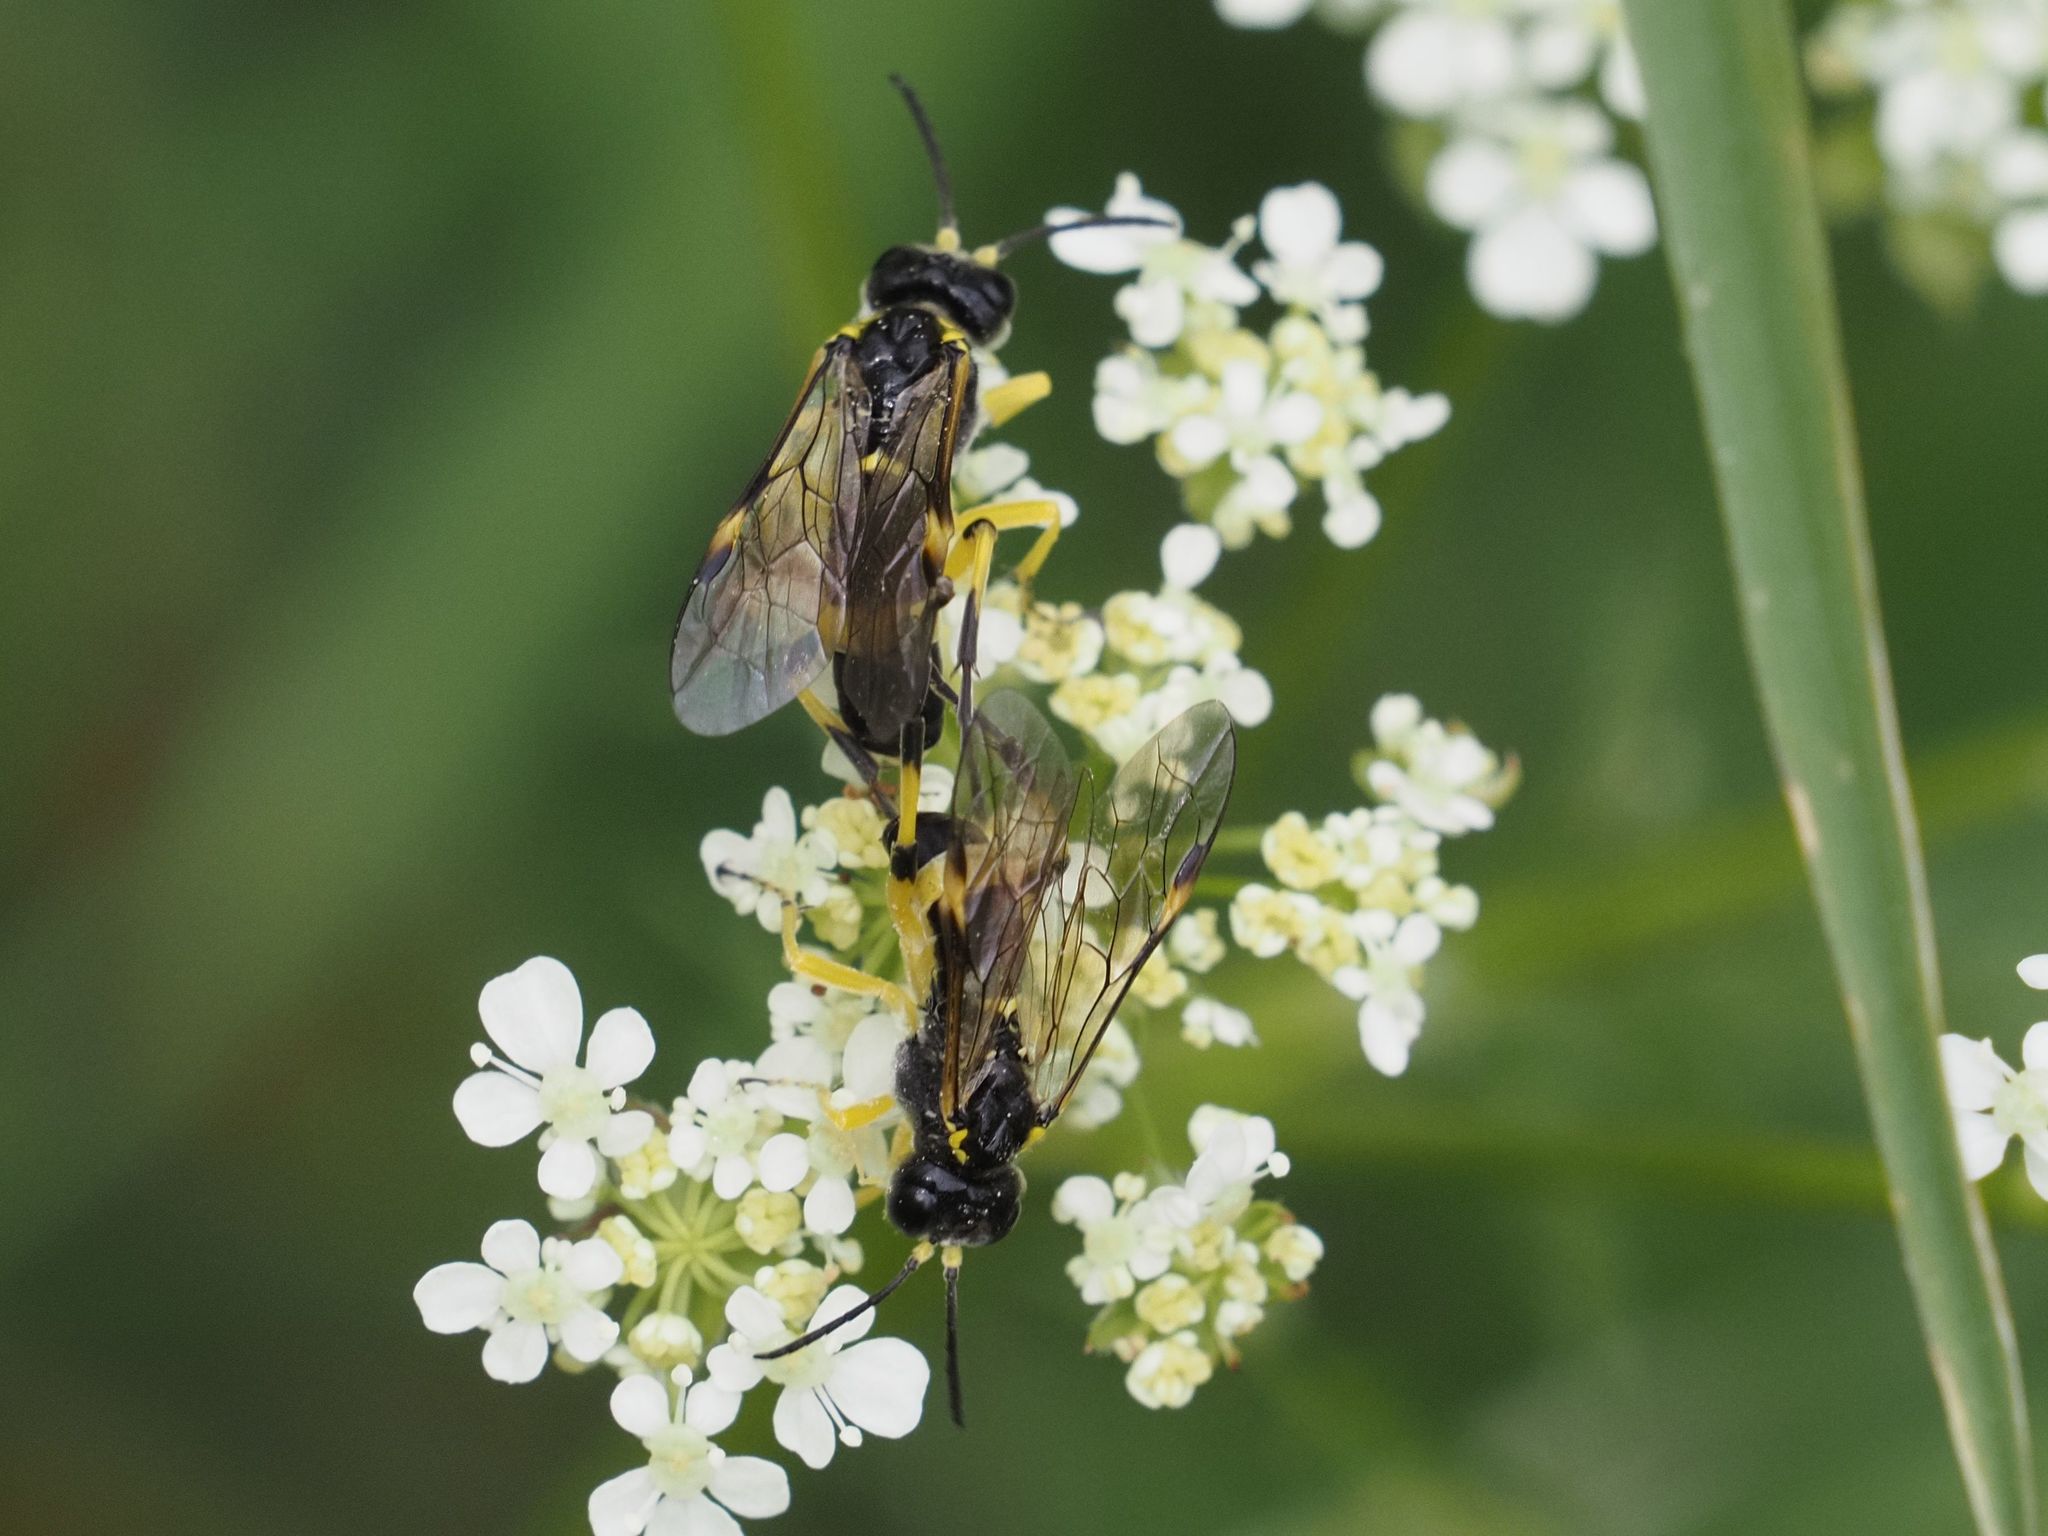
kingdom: Animalia
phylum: Arthropoda
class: Insecta
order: Hymenoptera
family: Tenthredinidae
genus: Tenthredo
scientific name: Tenthredo zonula
